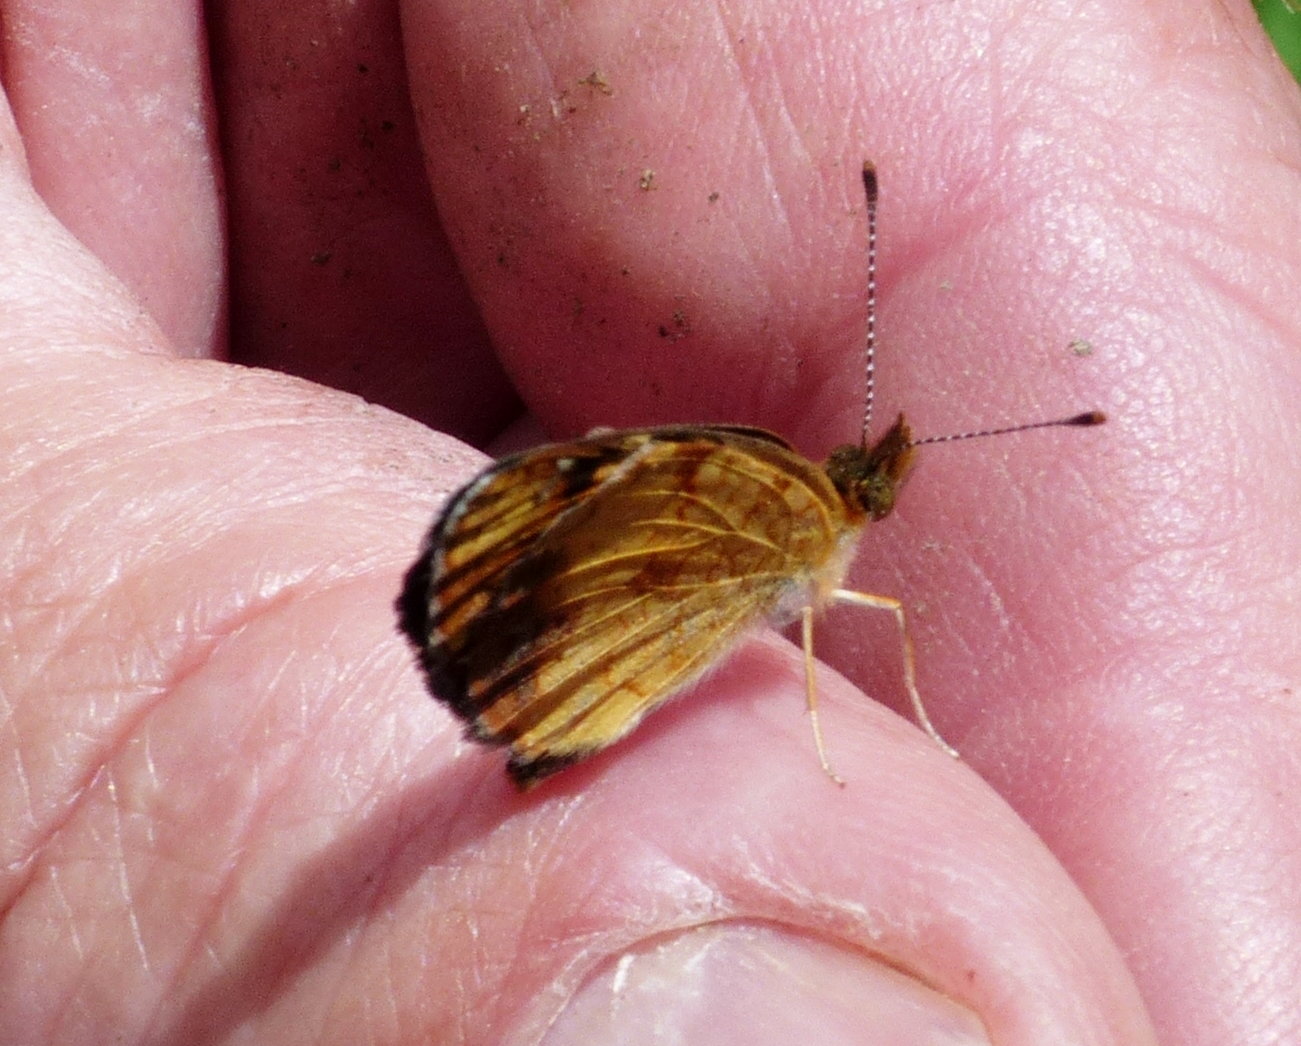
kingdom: Animalia
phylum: Arthropoda
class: Insecta
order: Lepidoptera
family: Nymphalidae
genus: Phyciodes
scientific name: Phyciodes tharos
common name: Pearl crescent
